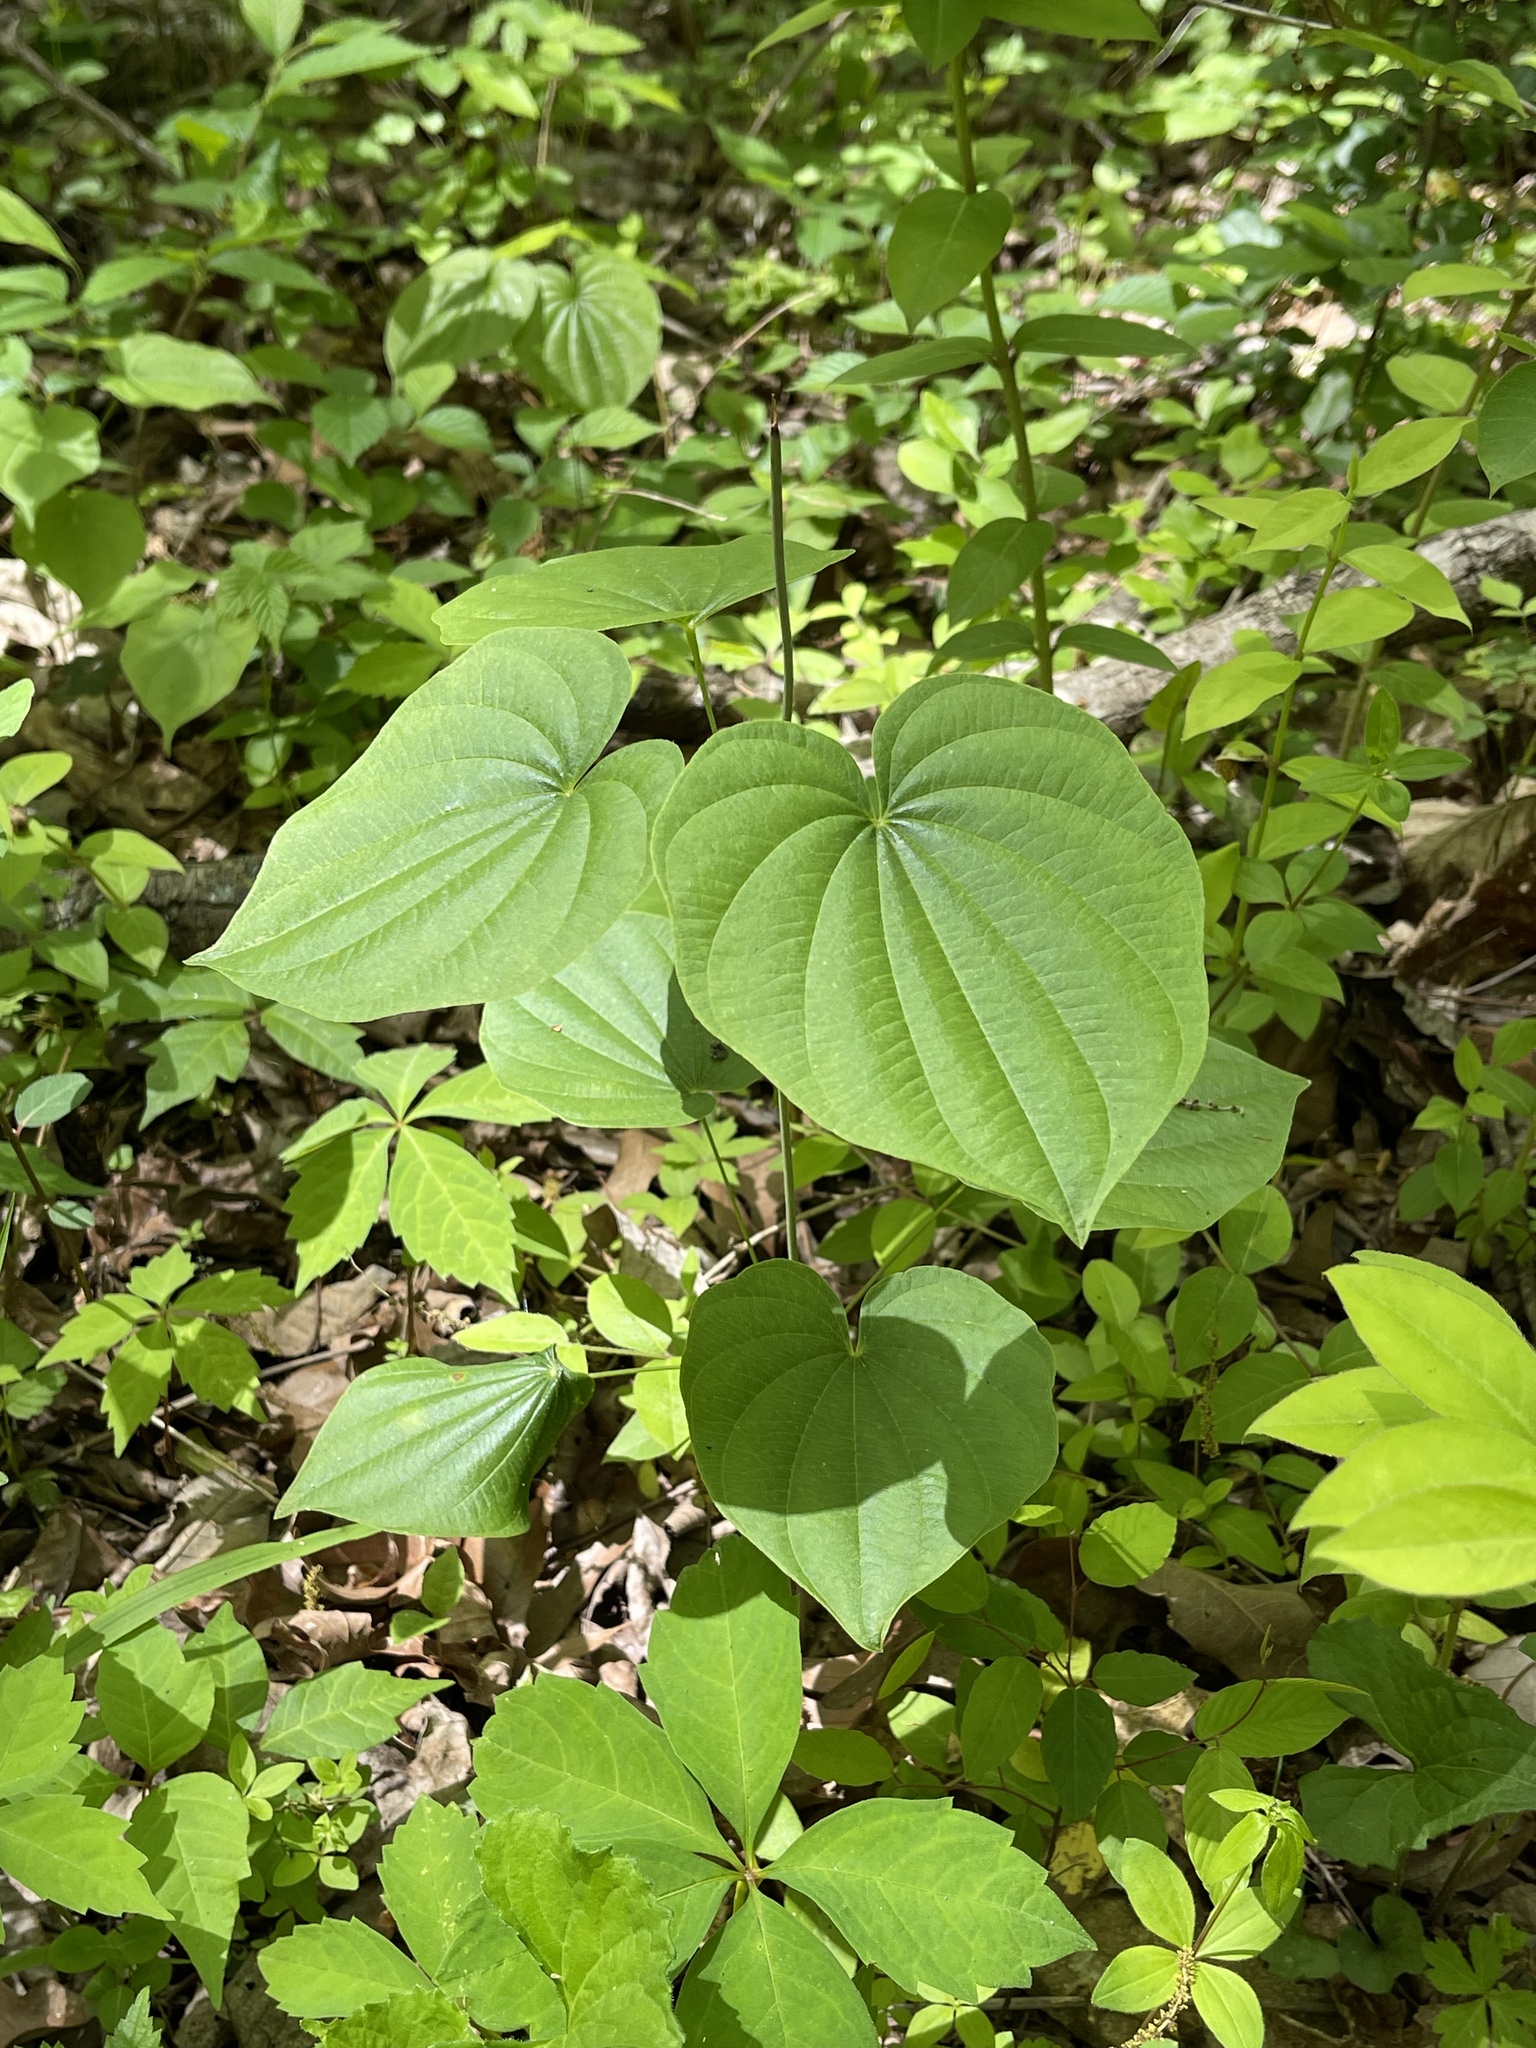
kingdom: Plantae
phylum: Tracheophyta
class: Liliopsida
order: Dioscoreales
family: Dioscoreaceae
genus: Dioscorea
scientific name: Dioscorea villosa
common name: Wild yam
